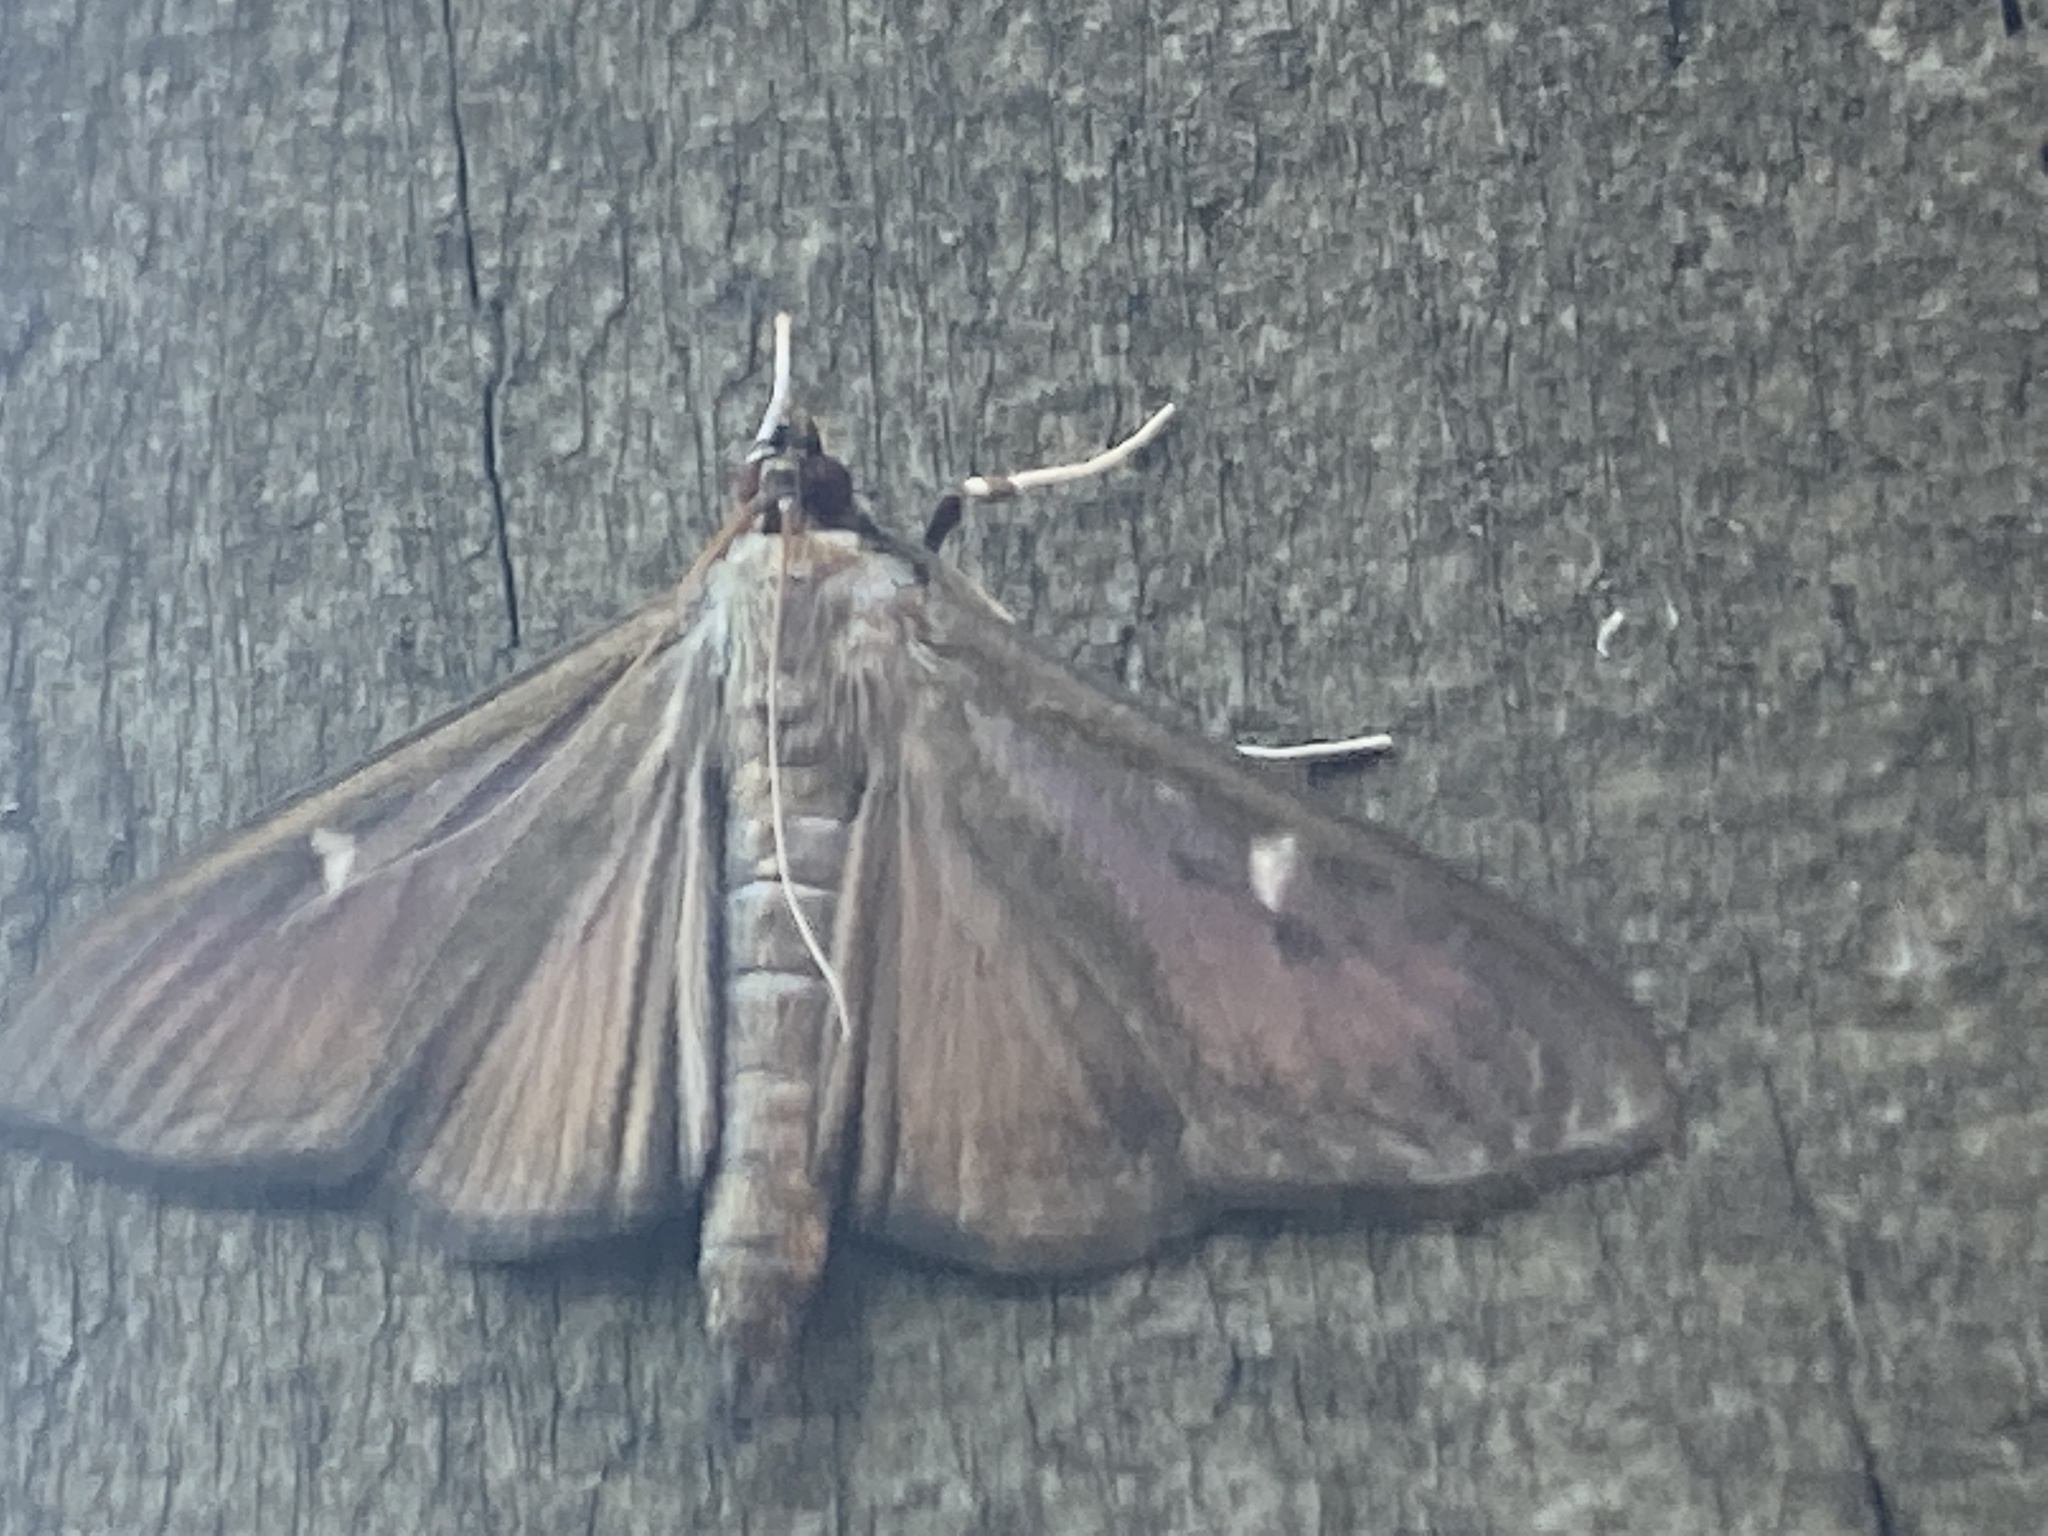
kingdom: Animalia
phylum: Arthropoda
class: Insecta
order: Lepidoptera
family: Crambidae
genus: Cydalima
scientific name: Cydalima perspectalis
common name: Box tree moth
